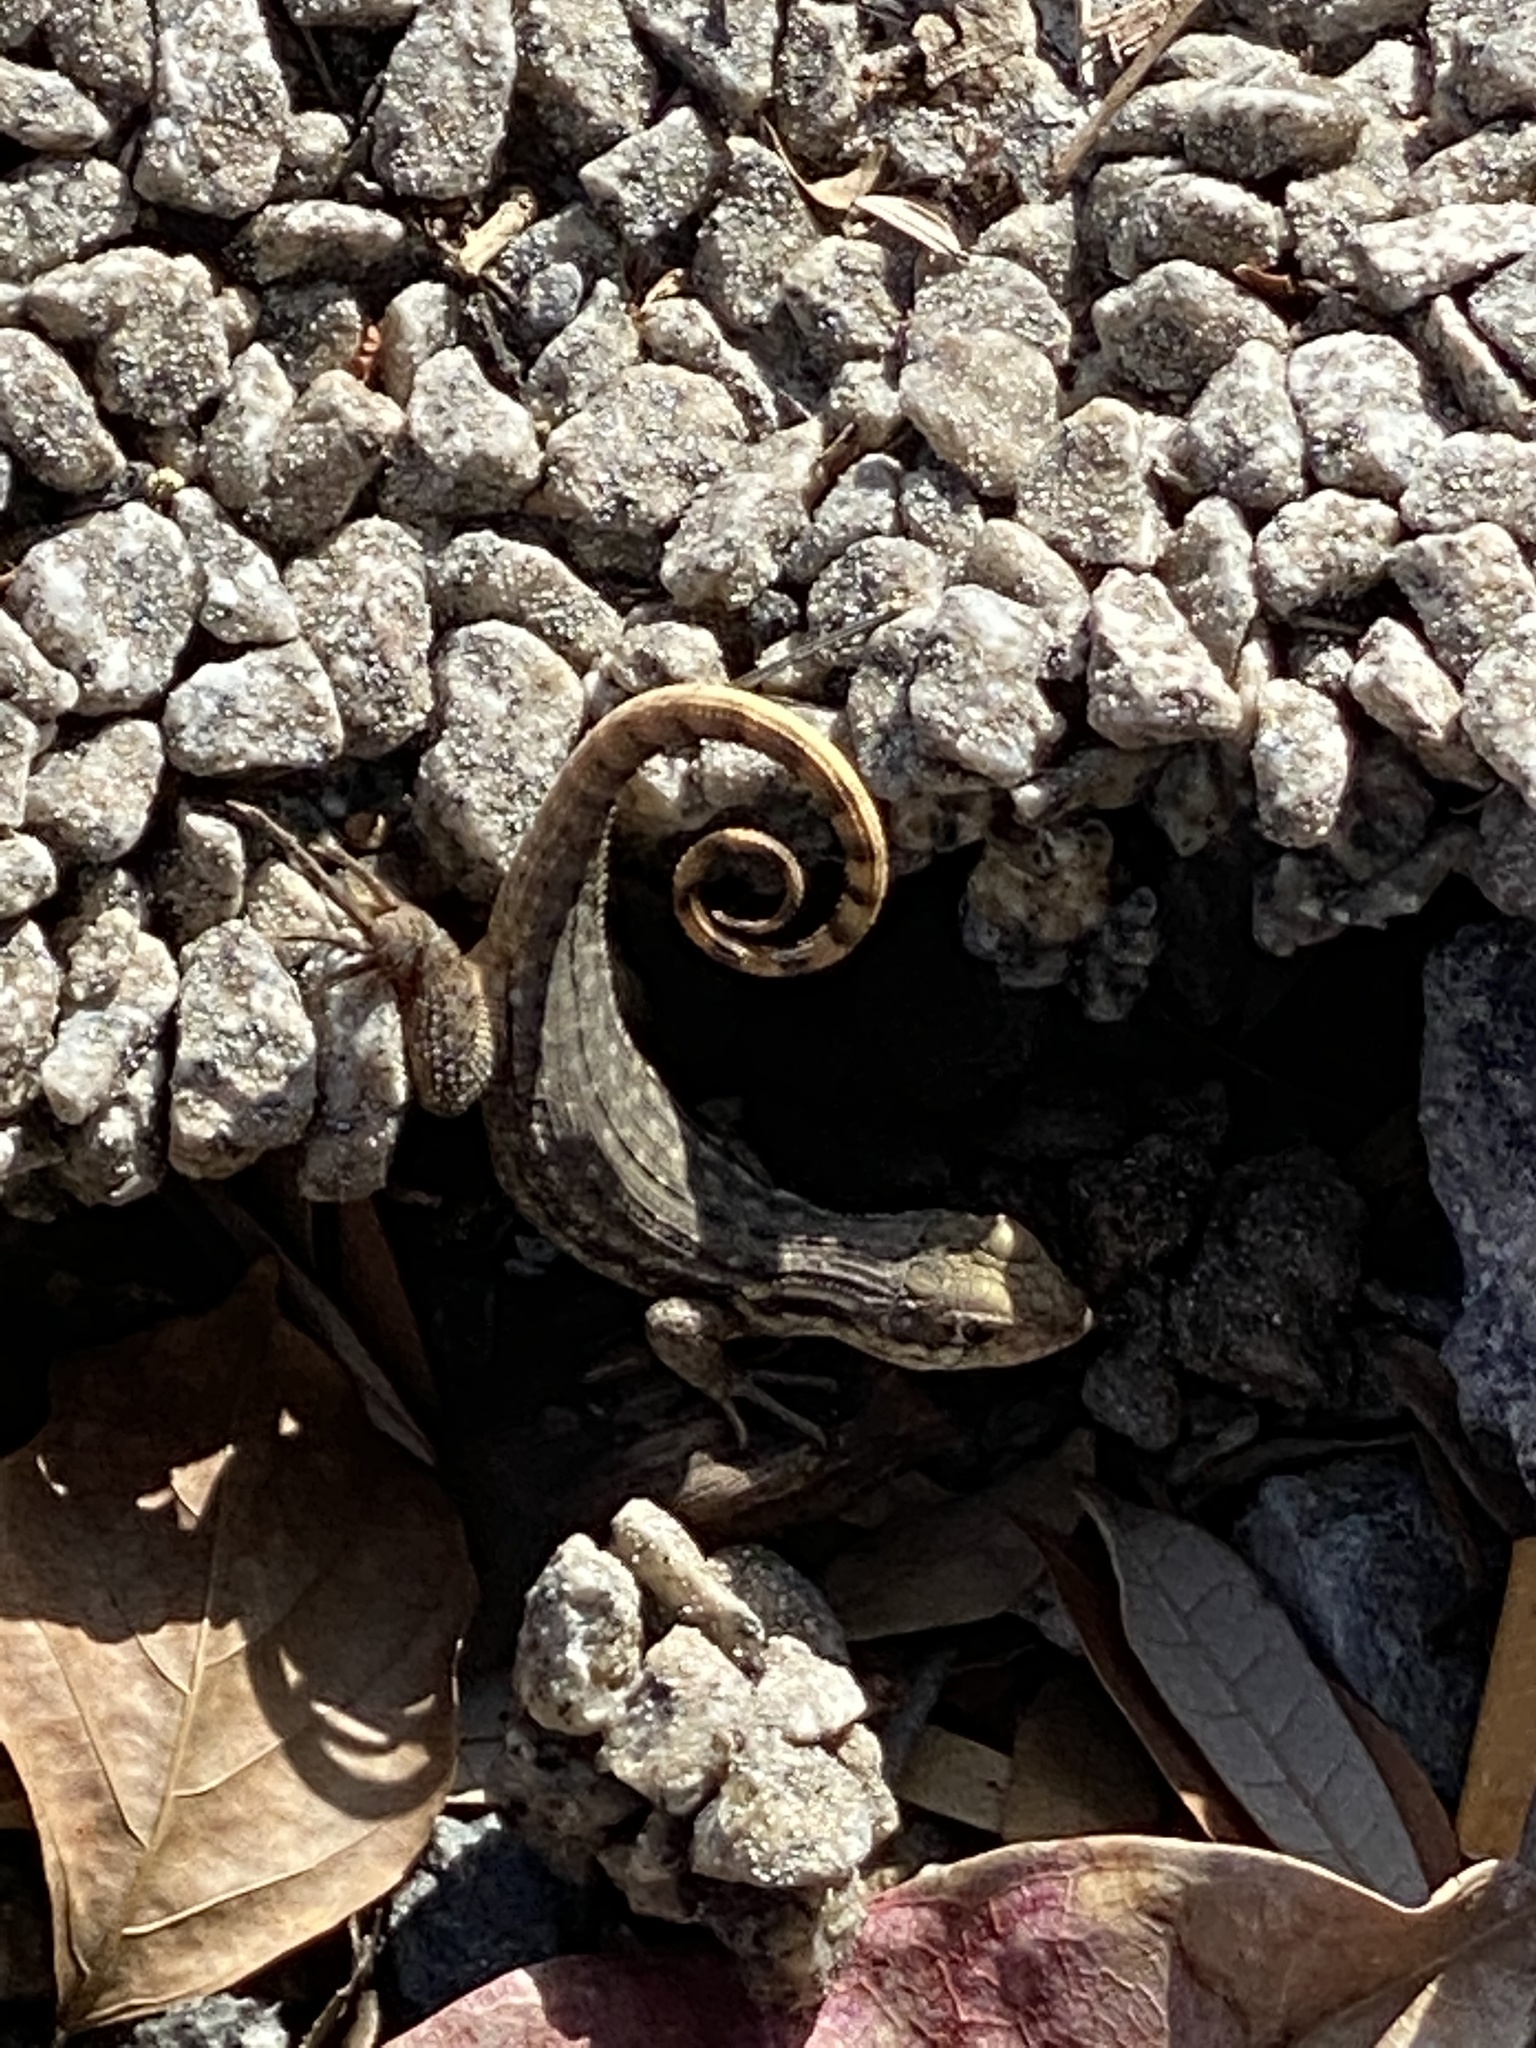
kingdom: Animalia
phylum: Chordata
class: Squamata
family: Leiocephalidae
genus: Leiocephalus
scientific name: Leiocephalus carinatus
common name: Northern curly-tailed lizard
